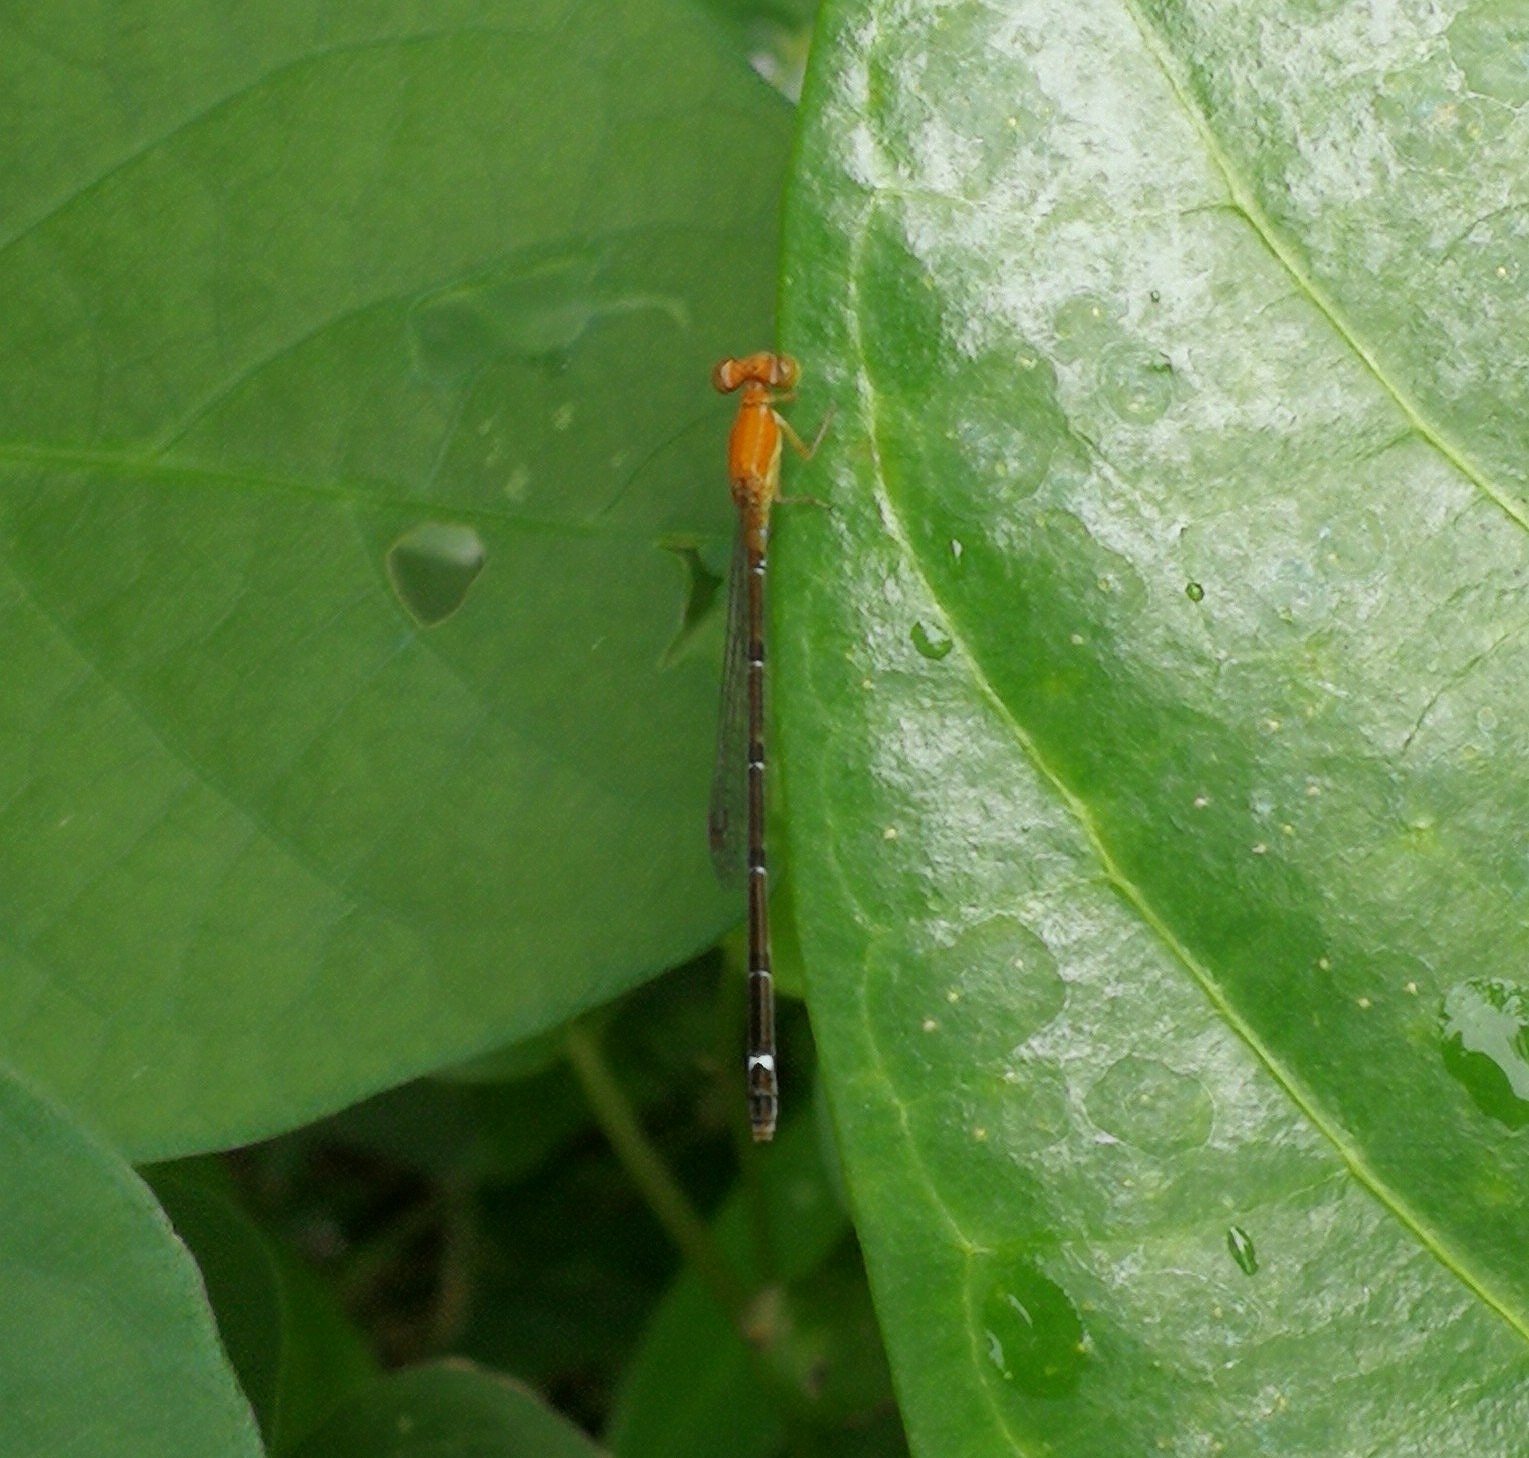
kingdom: Animalia
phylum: Arthropoda
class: Insecta
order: Odonata
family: Coenagrionidae
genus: Mortonagrion
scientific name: Mortonagrion varralli
